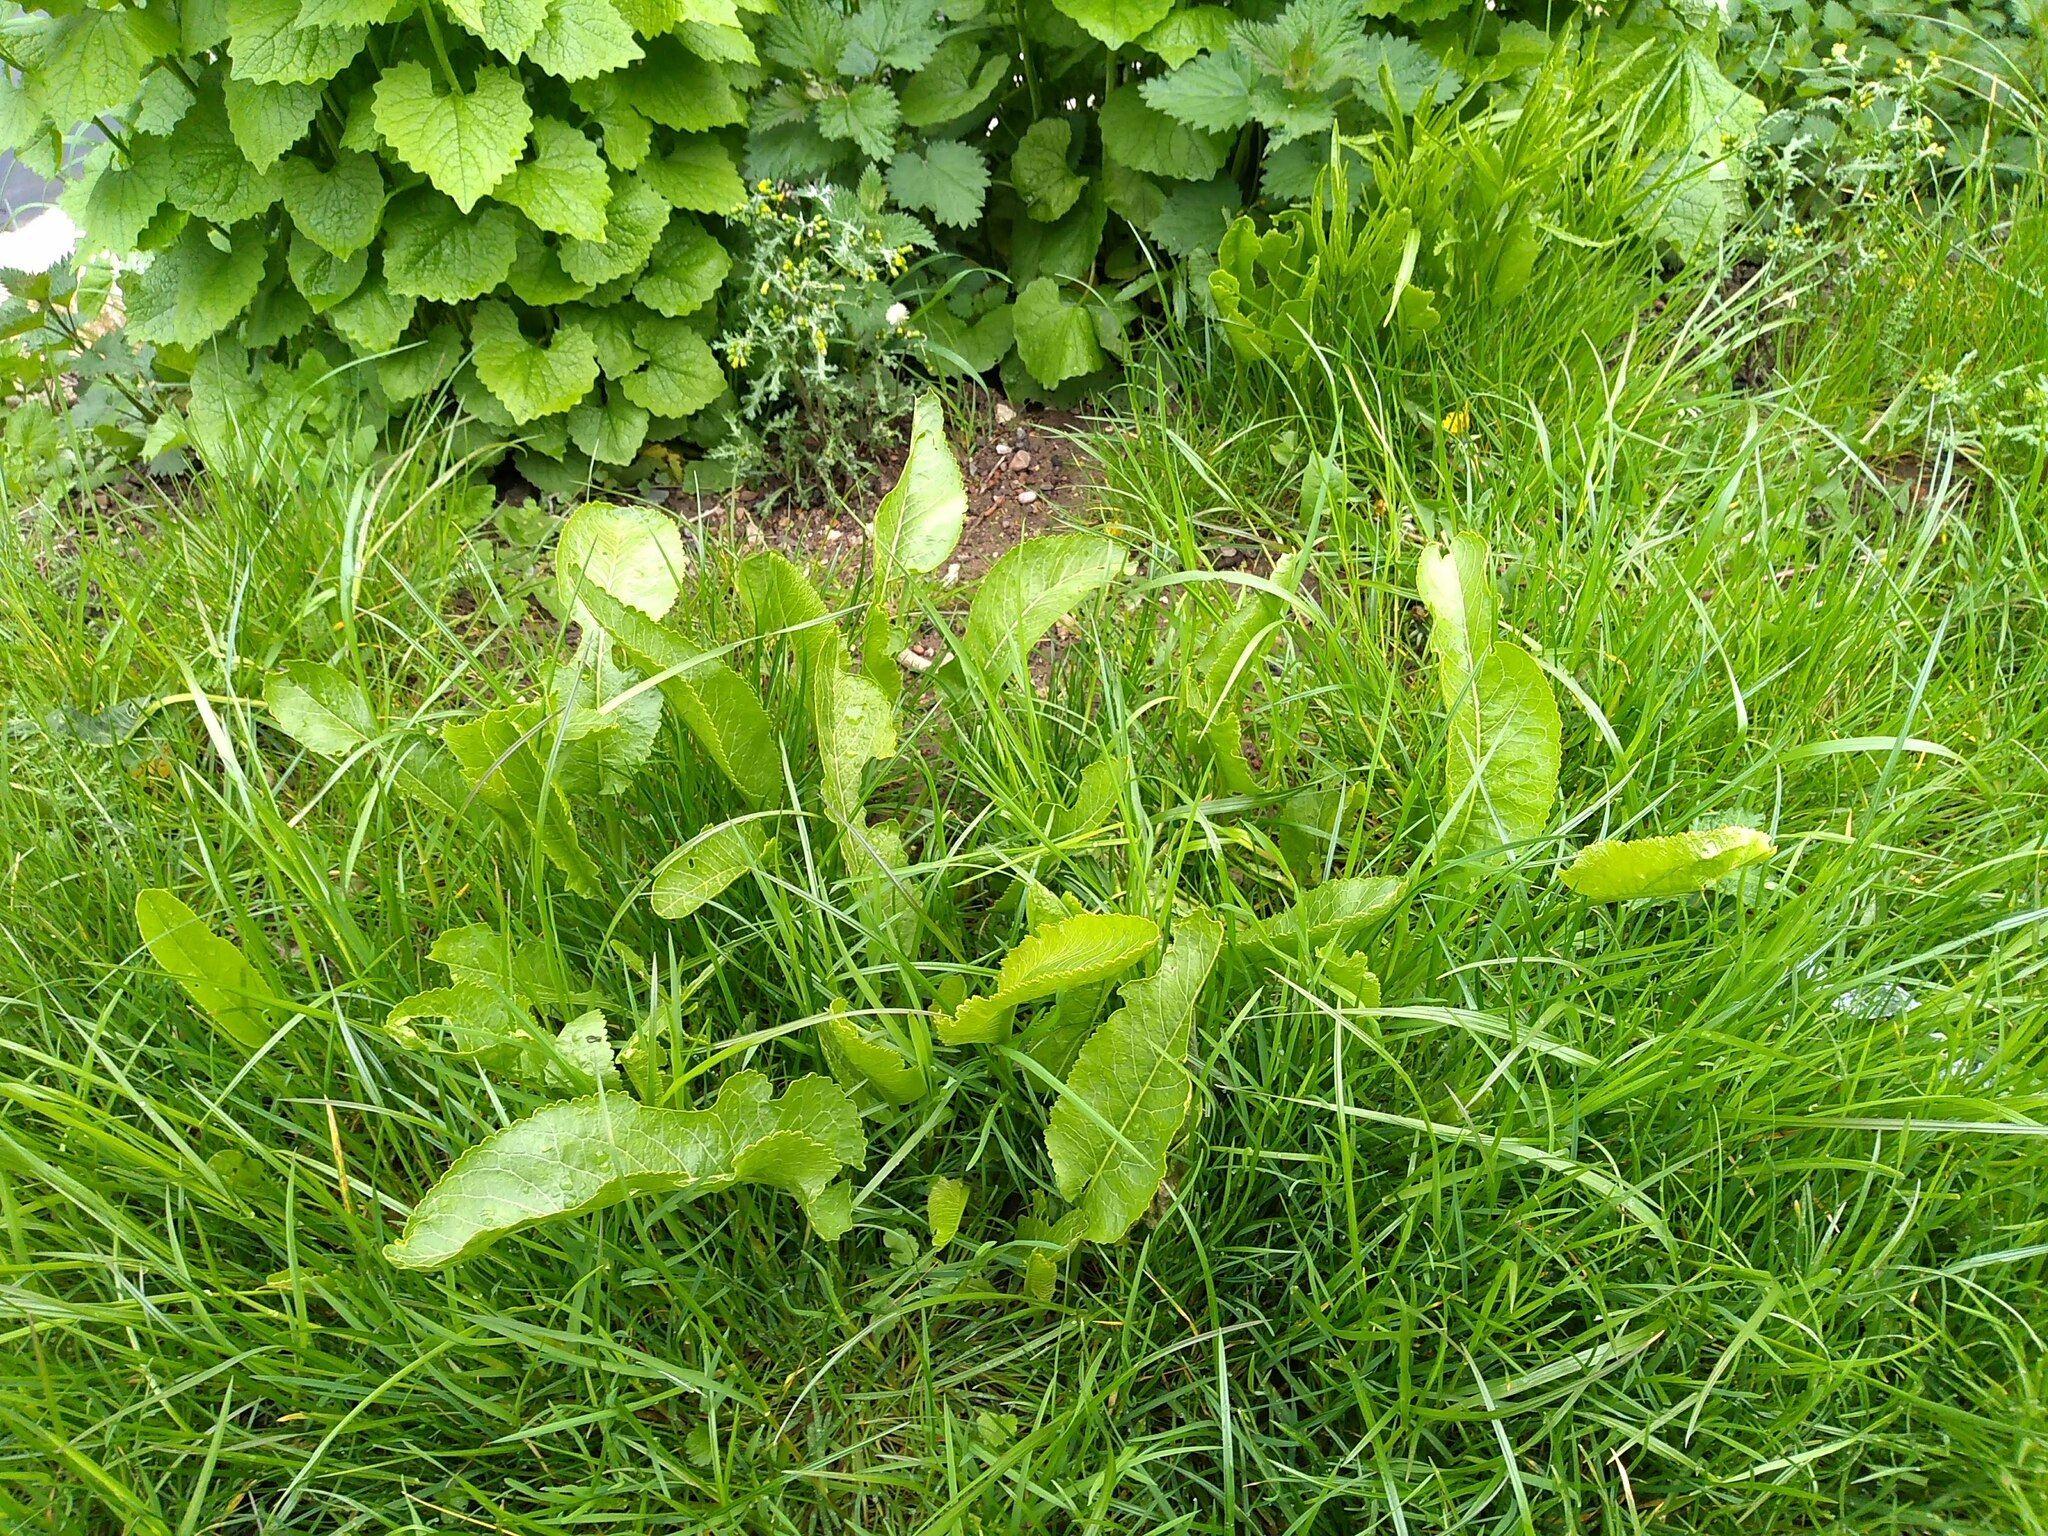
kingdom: Plantae
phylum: Tracheophyta
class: Magnoliopsida
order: Brassicales
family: Brassicaceae
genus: Armoracia
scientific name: Armoracia rusticana
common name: Horseradish
